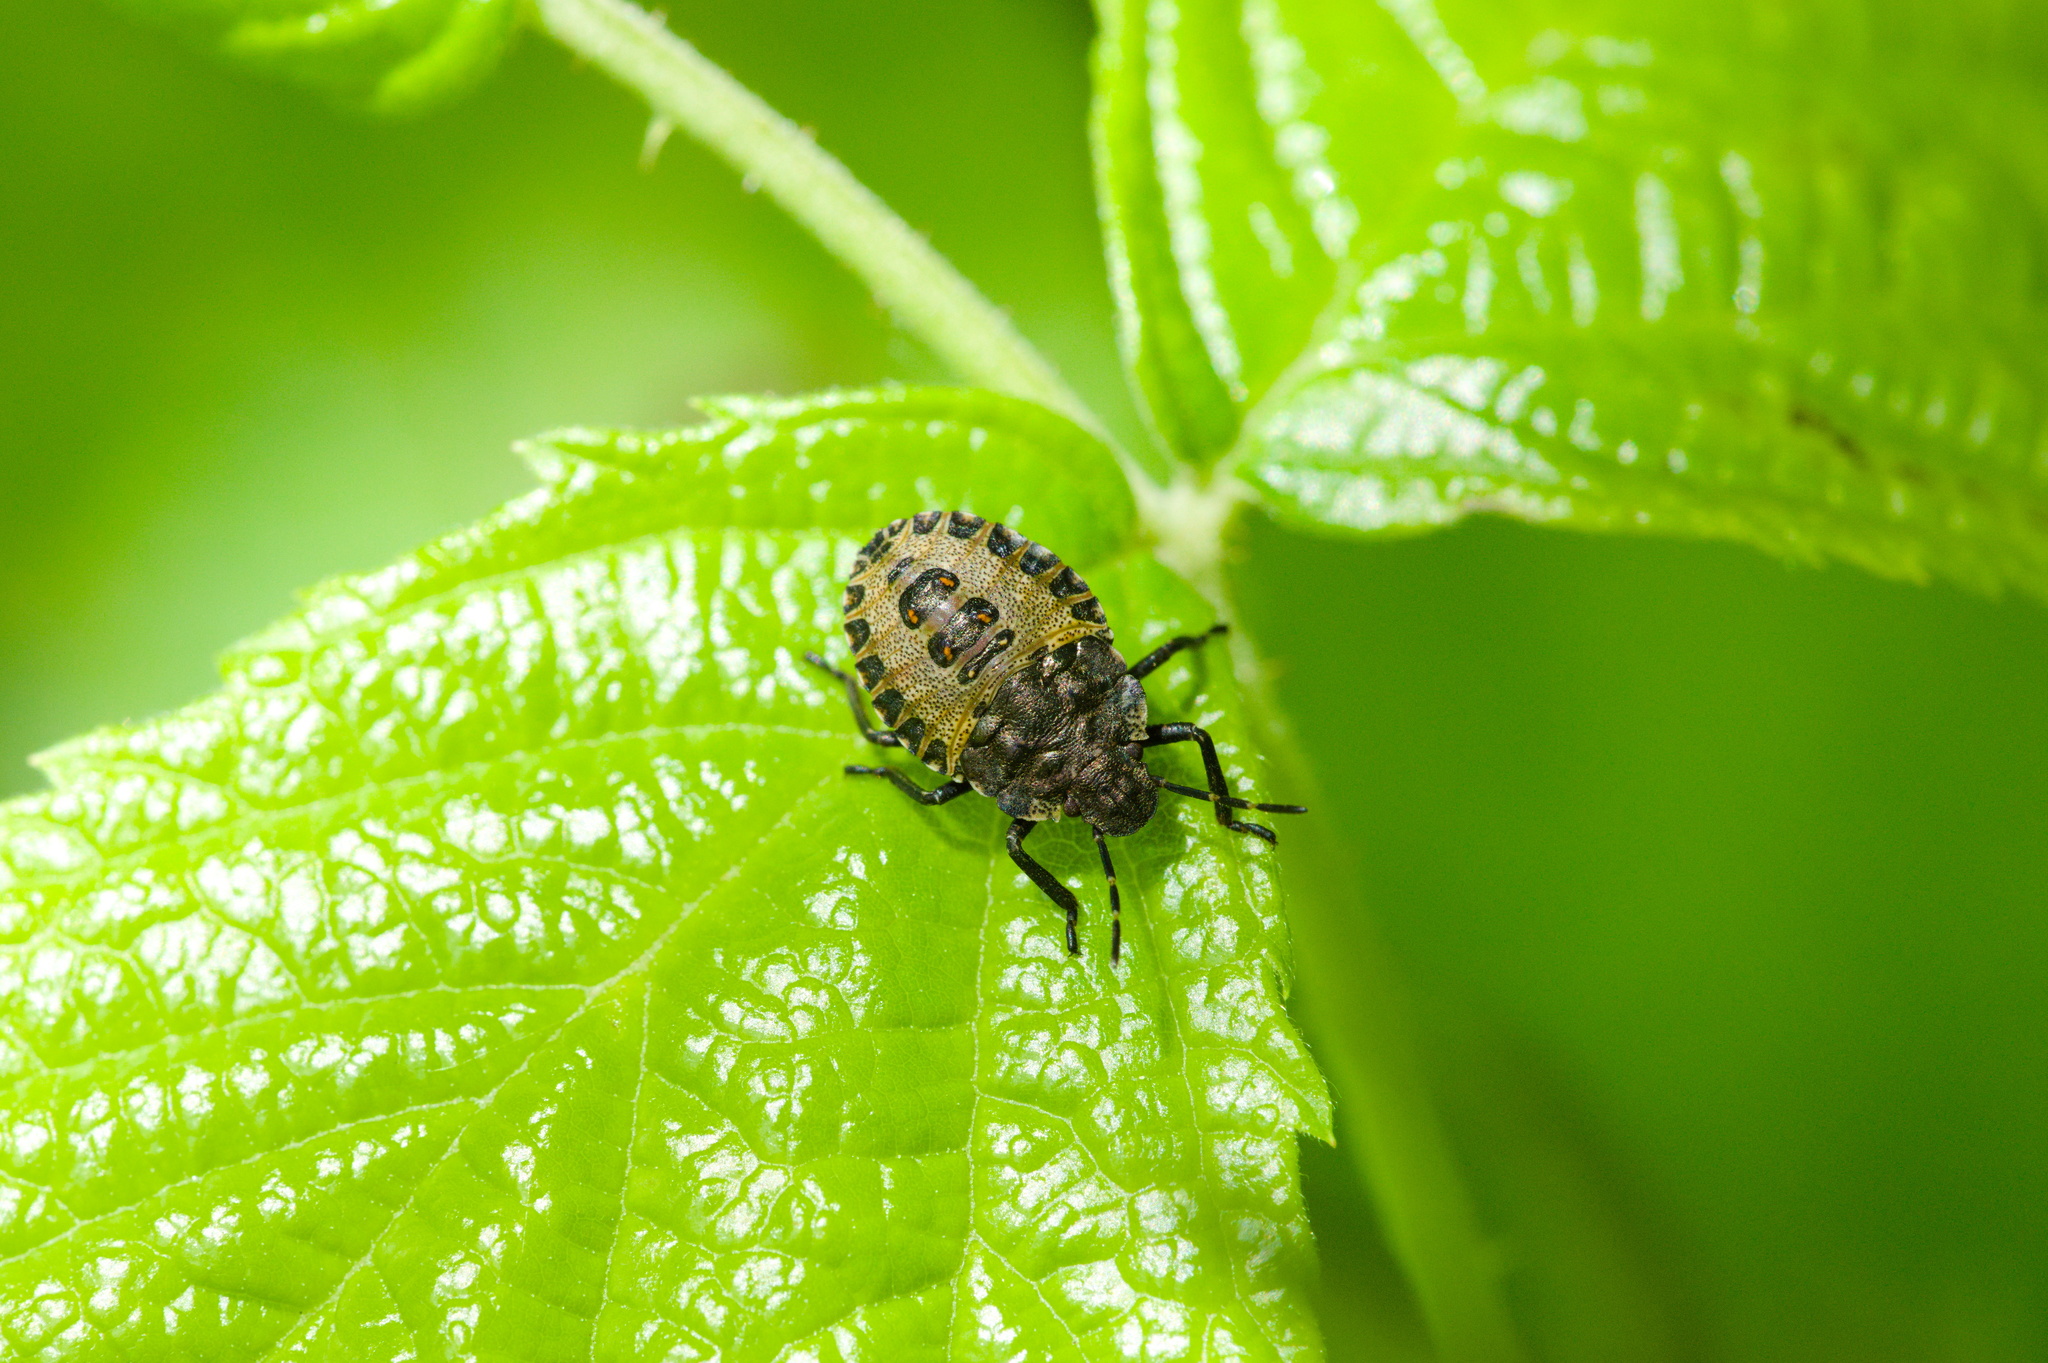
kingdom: Animalia
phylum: Arthropoda
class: Insecta
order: Hemiptera
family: Pentatomidae
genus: Pentatoma
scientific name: Pentatoma rufipes
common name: Forest bug
